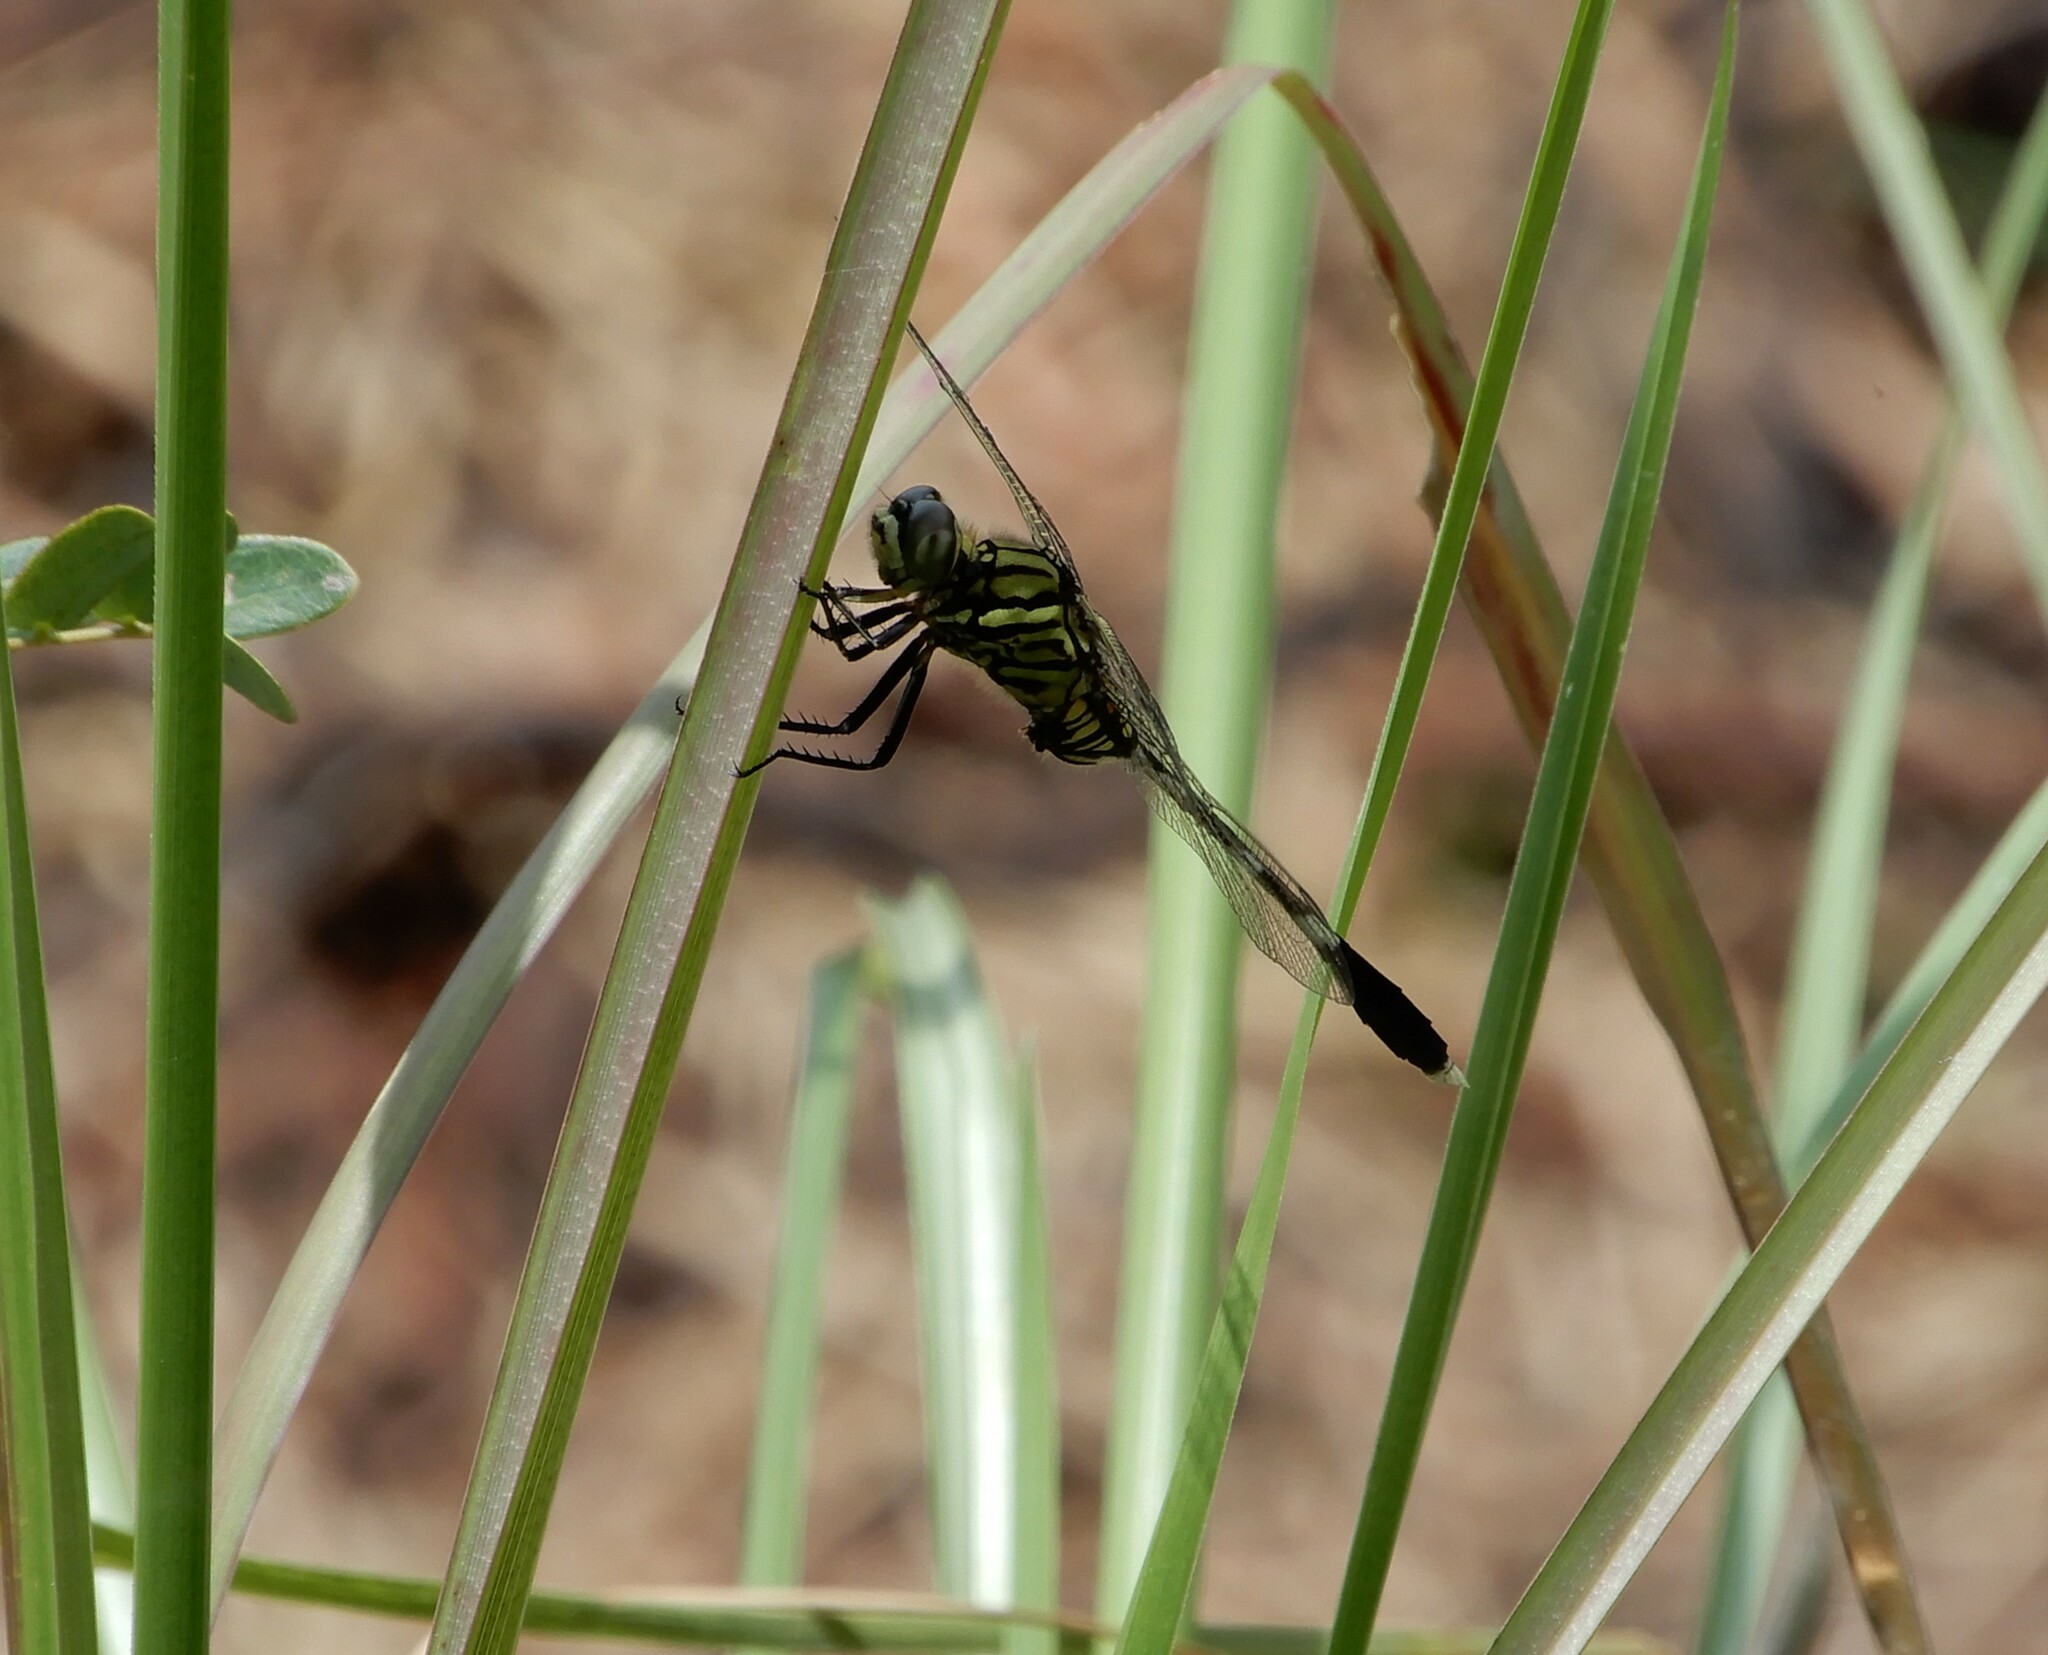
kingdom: Animalia
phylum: Arthropoda
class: Insecta
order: Odonata
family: Libellulidae
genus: Orthetrum
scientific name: Orthetrum sabina
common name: Slender skimmer
